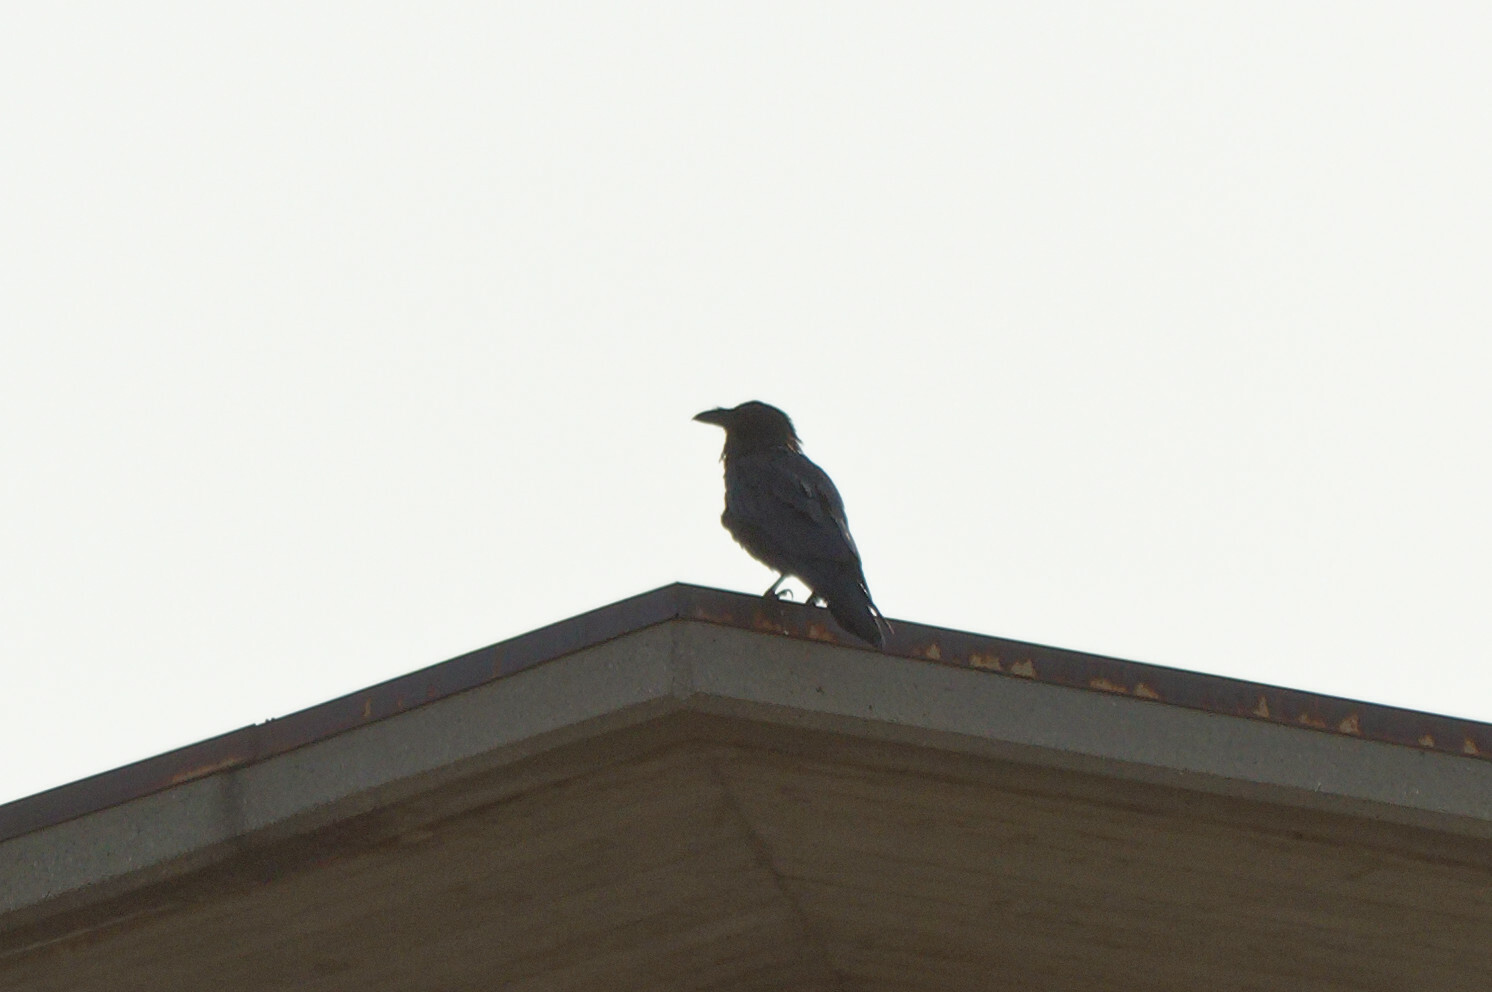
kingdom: Animalia
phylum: Chordata
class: Aves
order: Passeriformes
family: Corvidae
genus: Corvus
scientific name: Corvus corax
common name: Common raven
